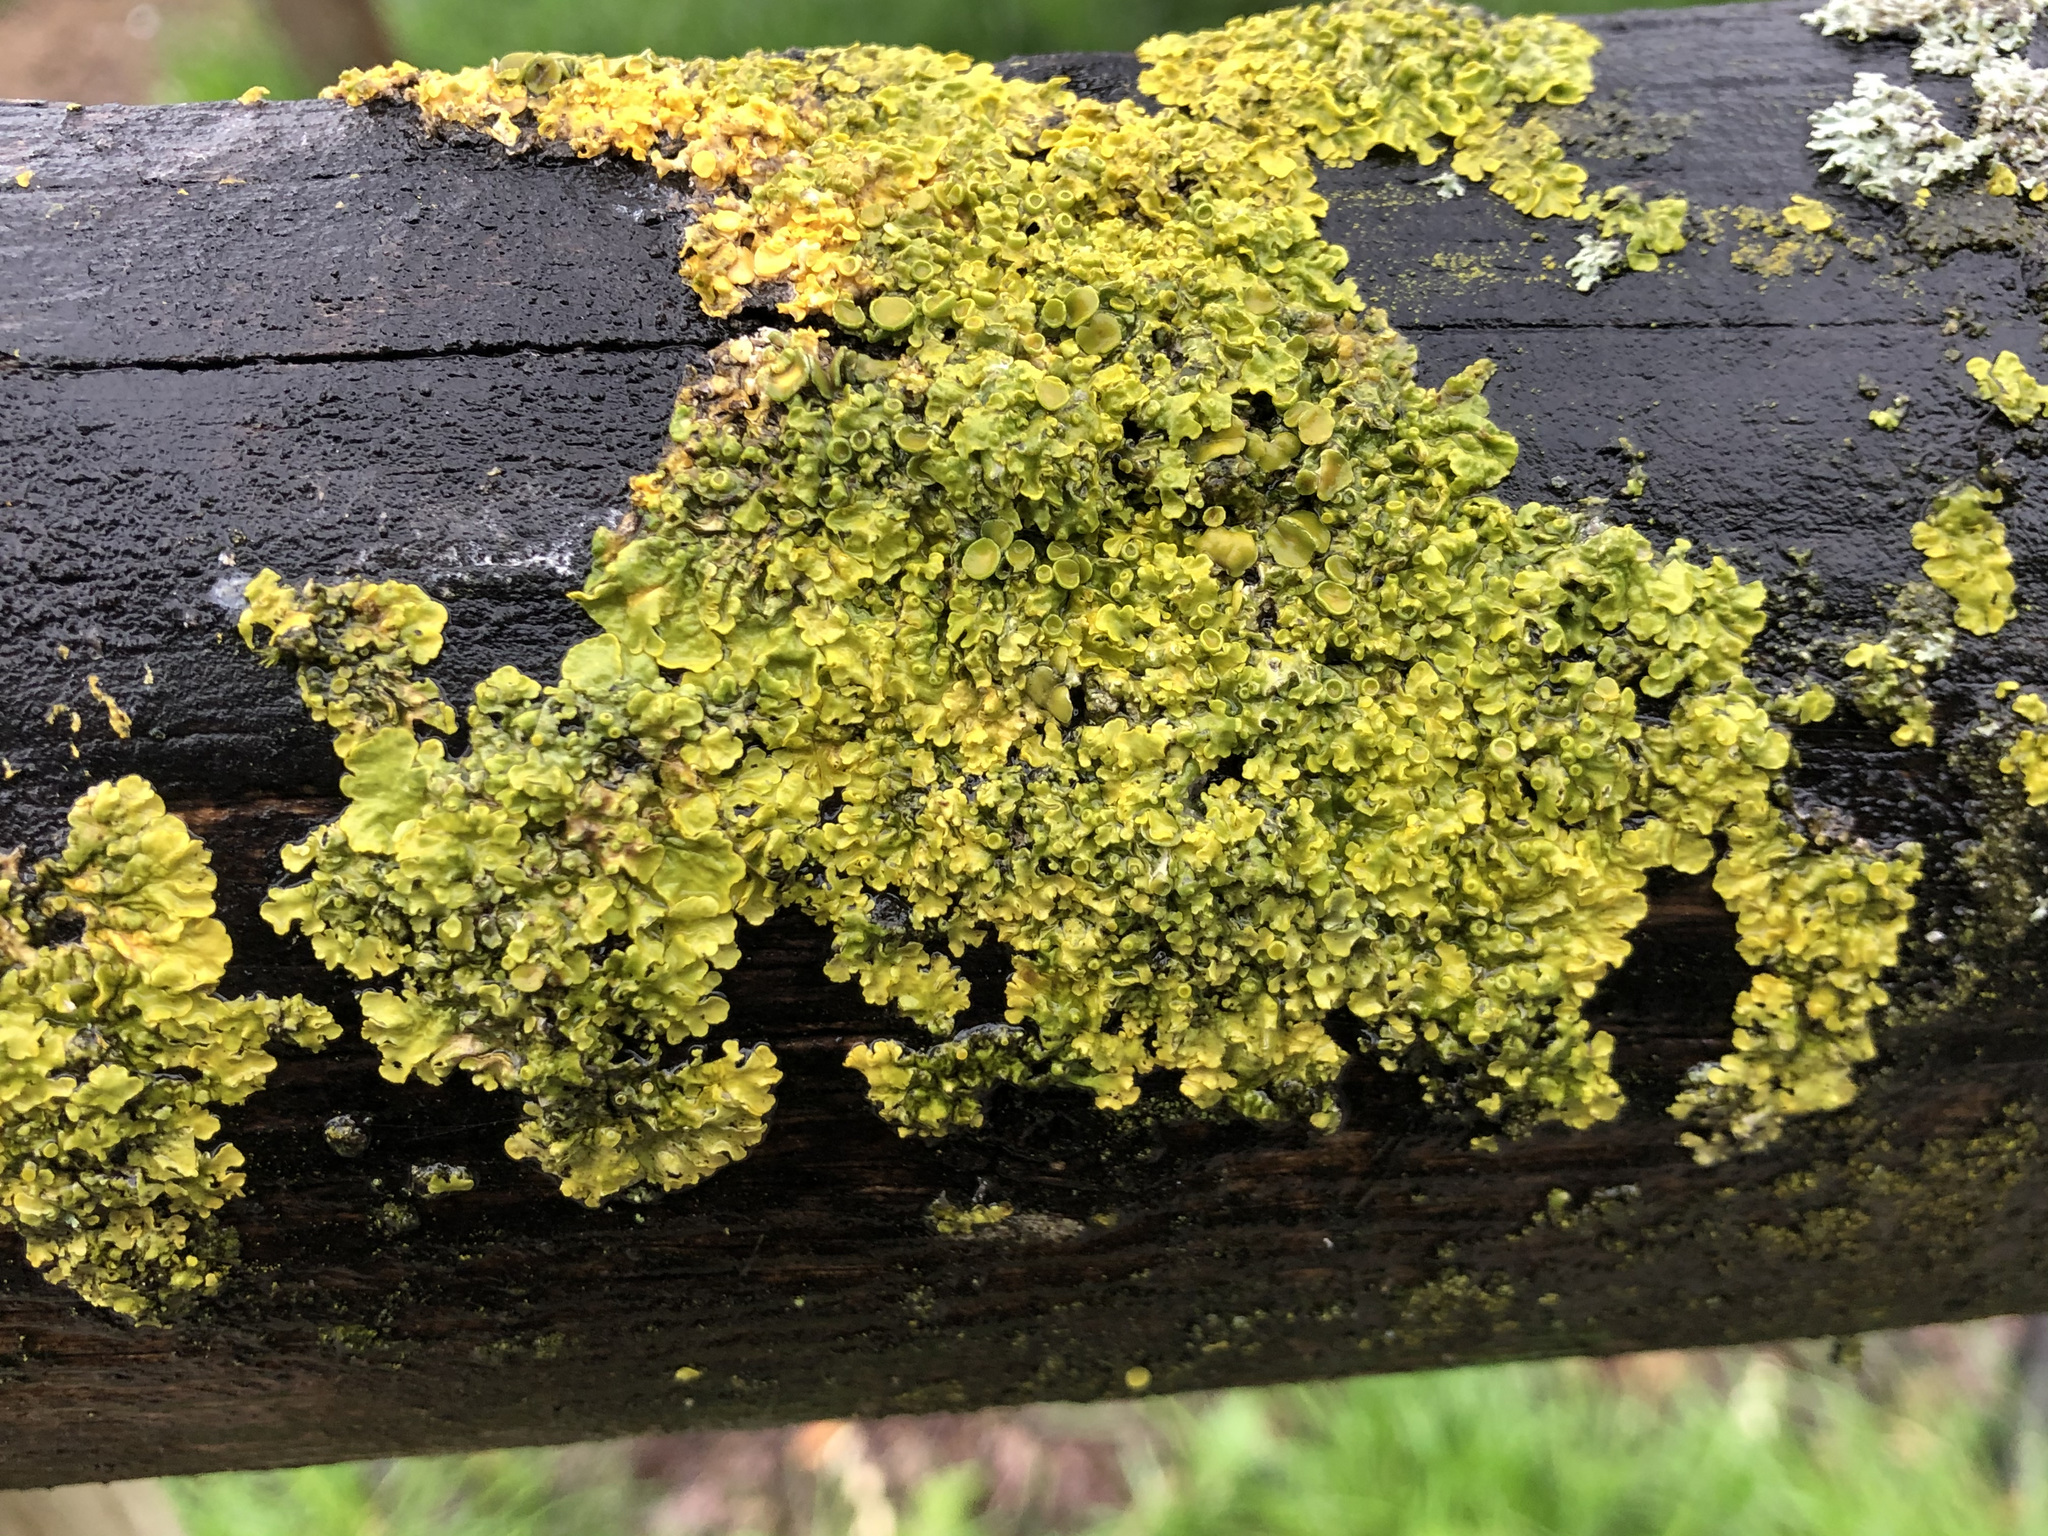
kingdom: Fungi
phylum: Ascomycota
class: Lecanoromycetes
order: Teloschistales
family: Teloschistaceae
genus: Xanthoria
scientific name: Xanthoria parietina
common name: Common orange lichen
